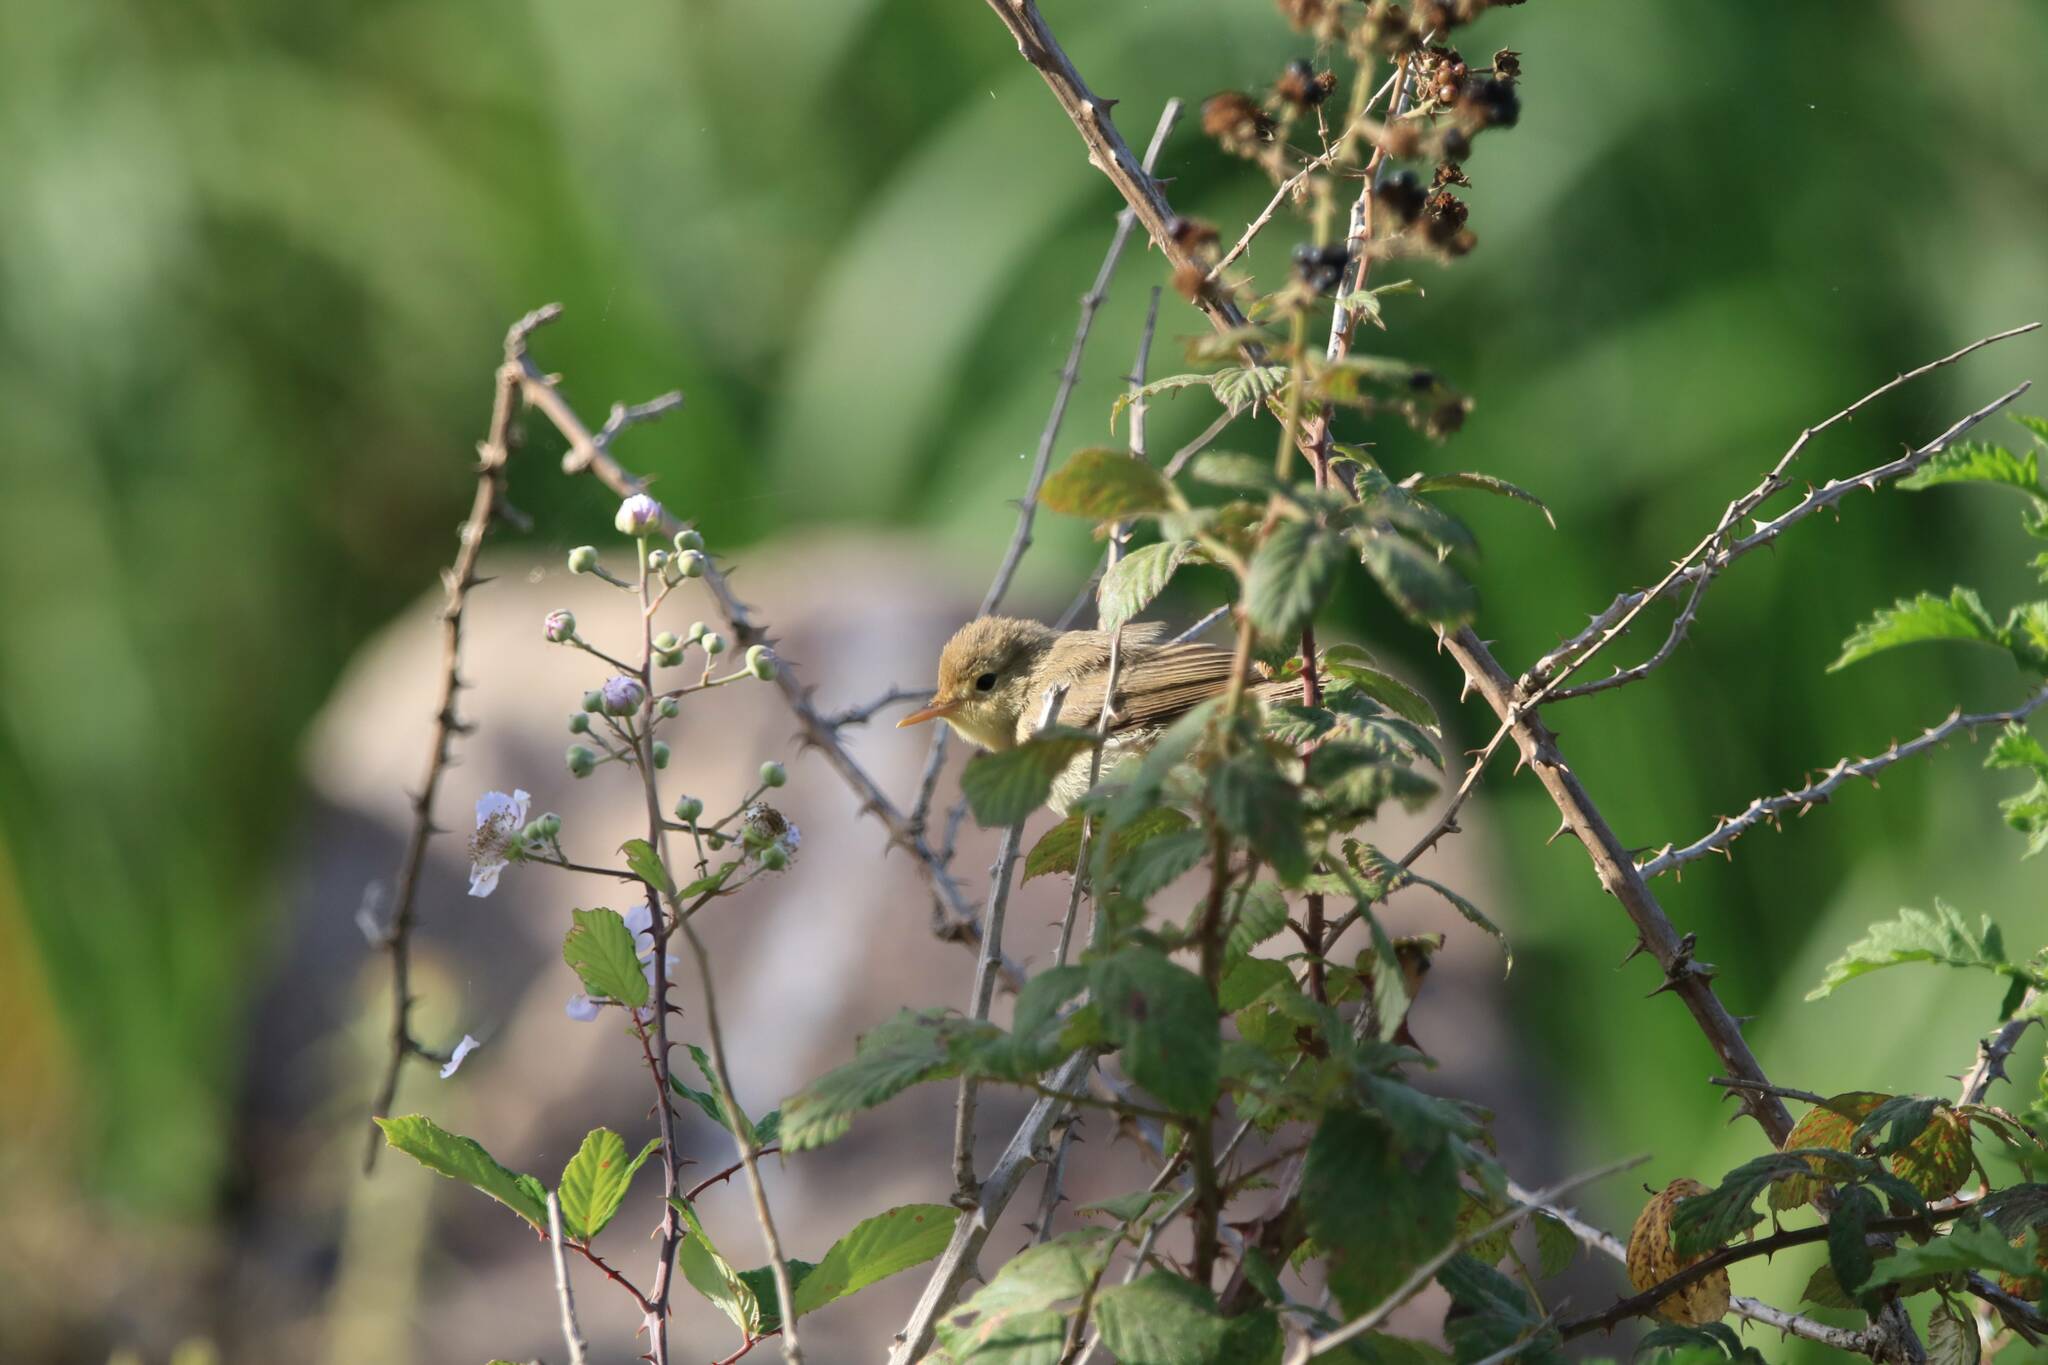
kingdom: Animalia
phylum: Chordata
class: Aves
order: Passeriformes
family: Acrocephalidae
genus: Hippolais
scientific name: Hippolais polyglotta
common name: Melodious warbler
